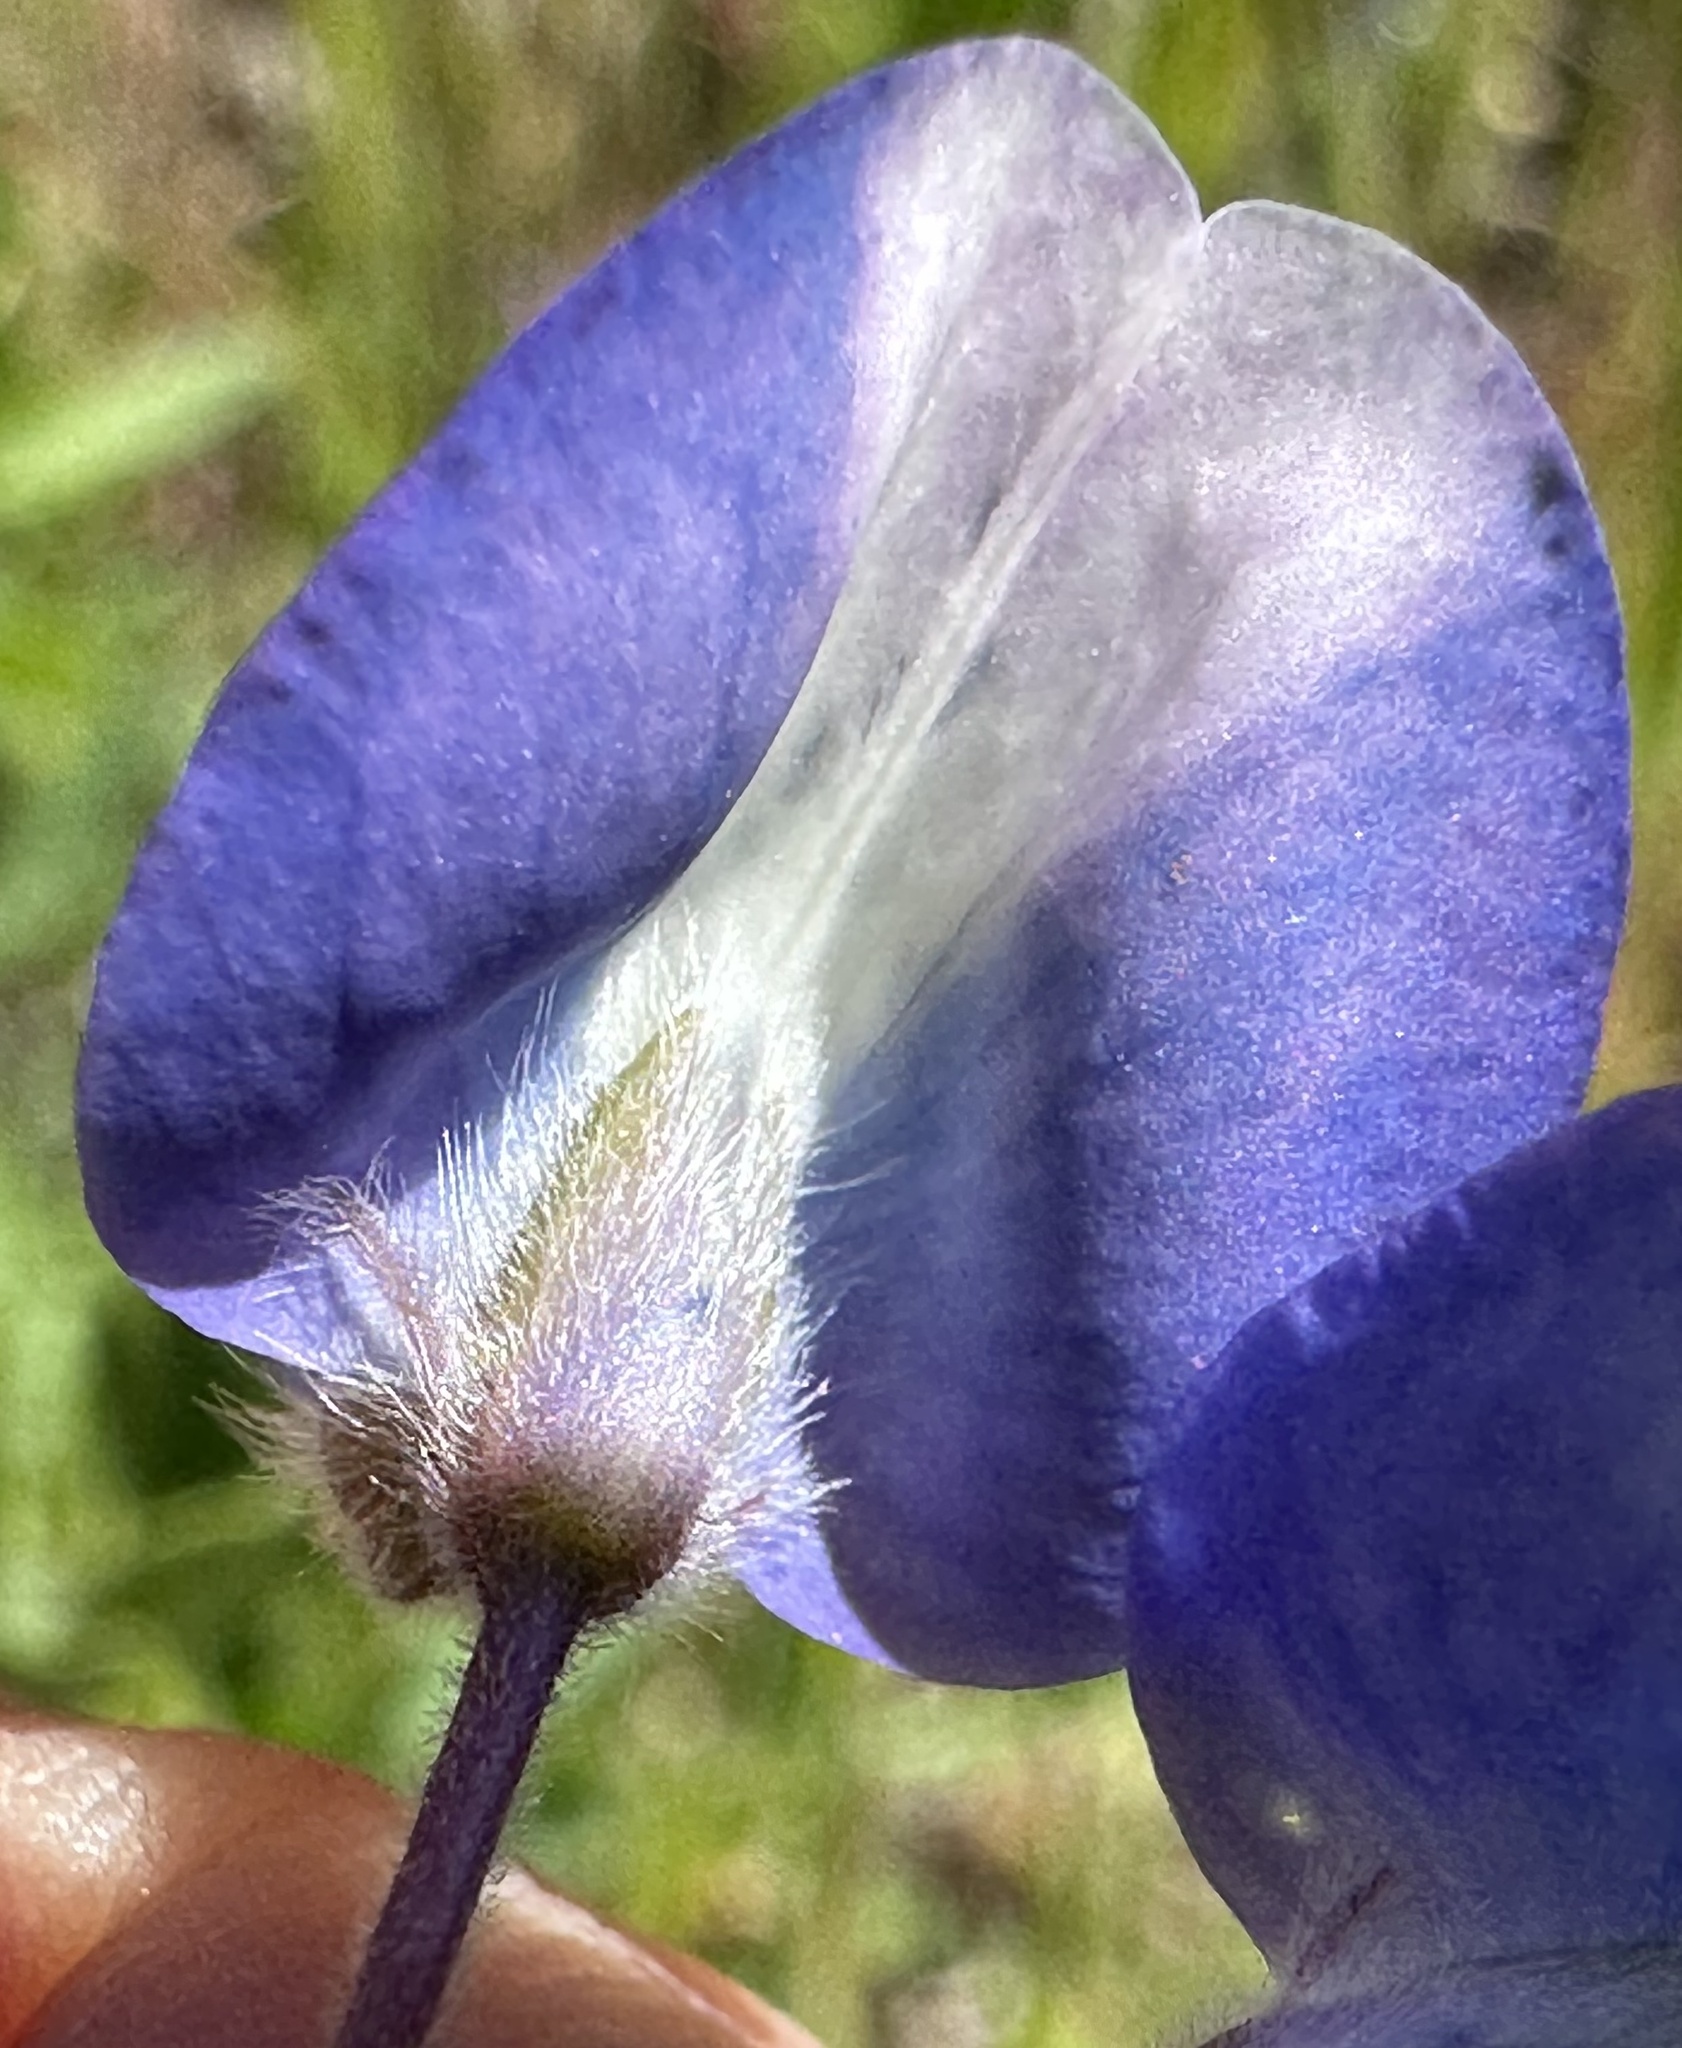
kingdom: Plantae
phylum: Tracheophyta
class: Magnoliopsida
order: Fabales
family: Fabaceae
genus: Lupinus
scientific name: Lupinus nanus
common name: Orean blue lupin
